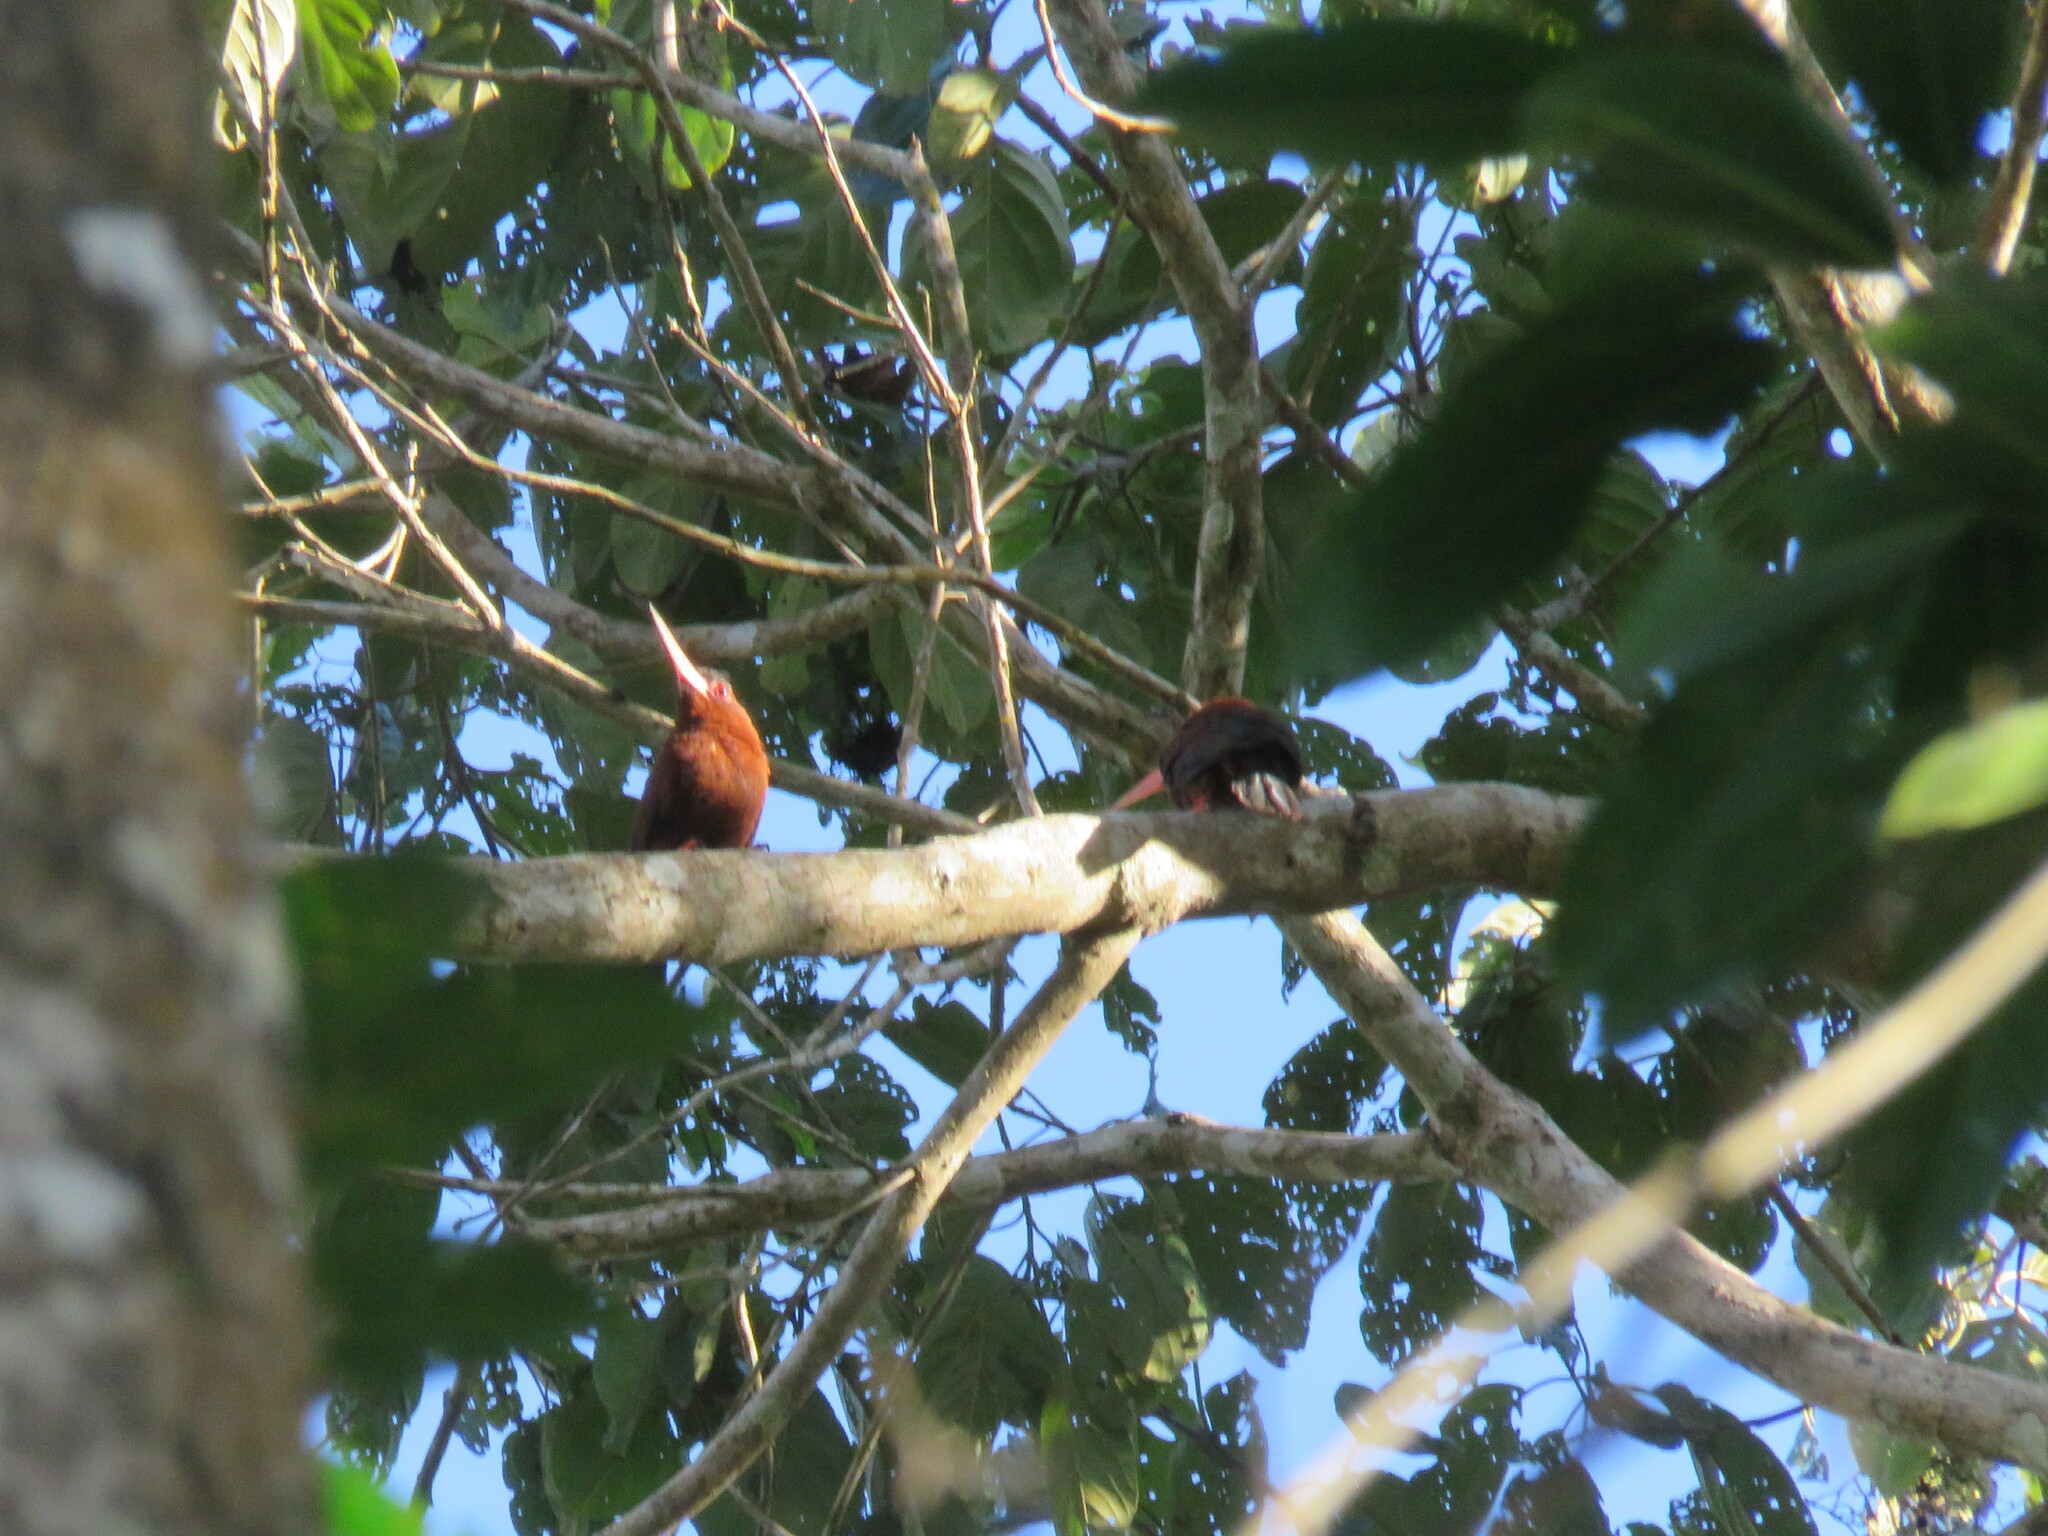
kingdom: Animalia
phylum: Chordata
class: Aves
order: Piciformes
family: Galbulidae
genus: Galbalcyrhynchus
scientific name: Galbalcyrhynchus purusianus
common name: Purus jacamar
